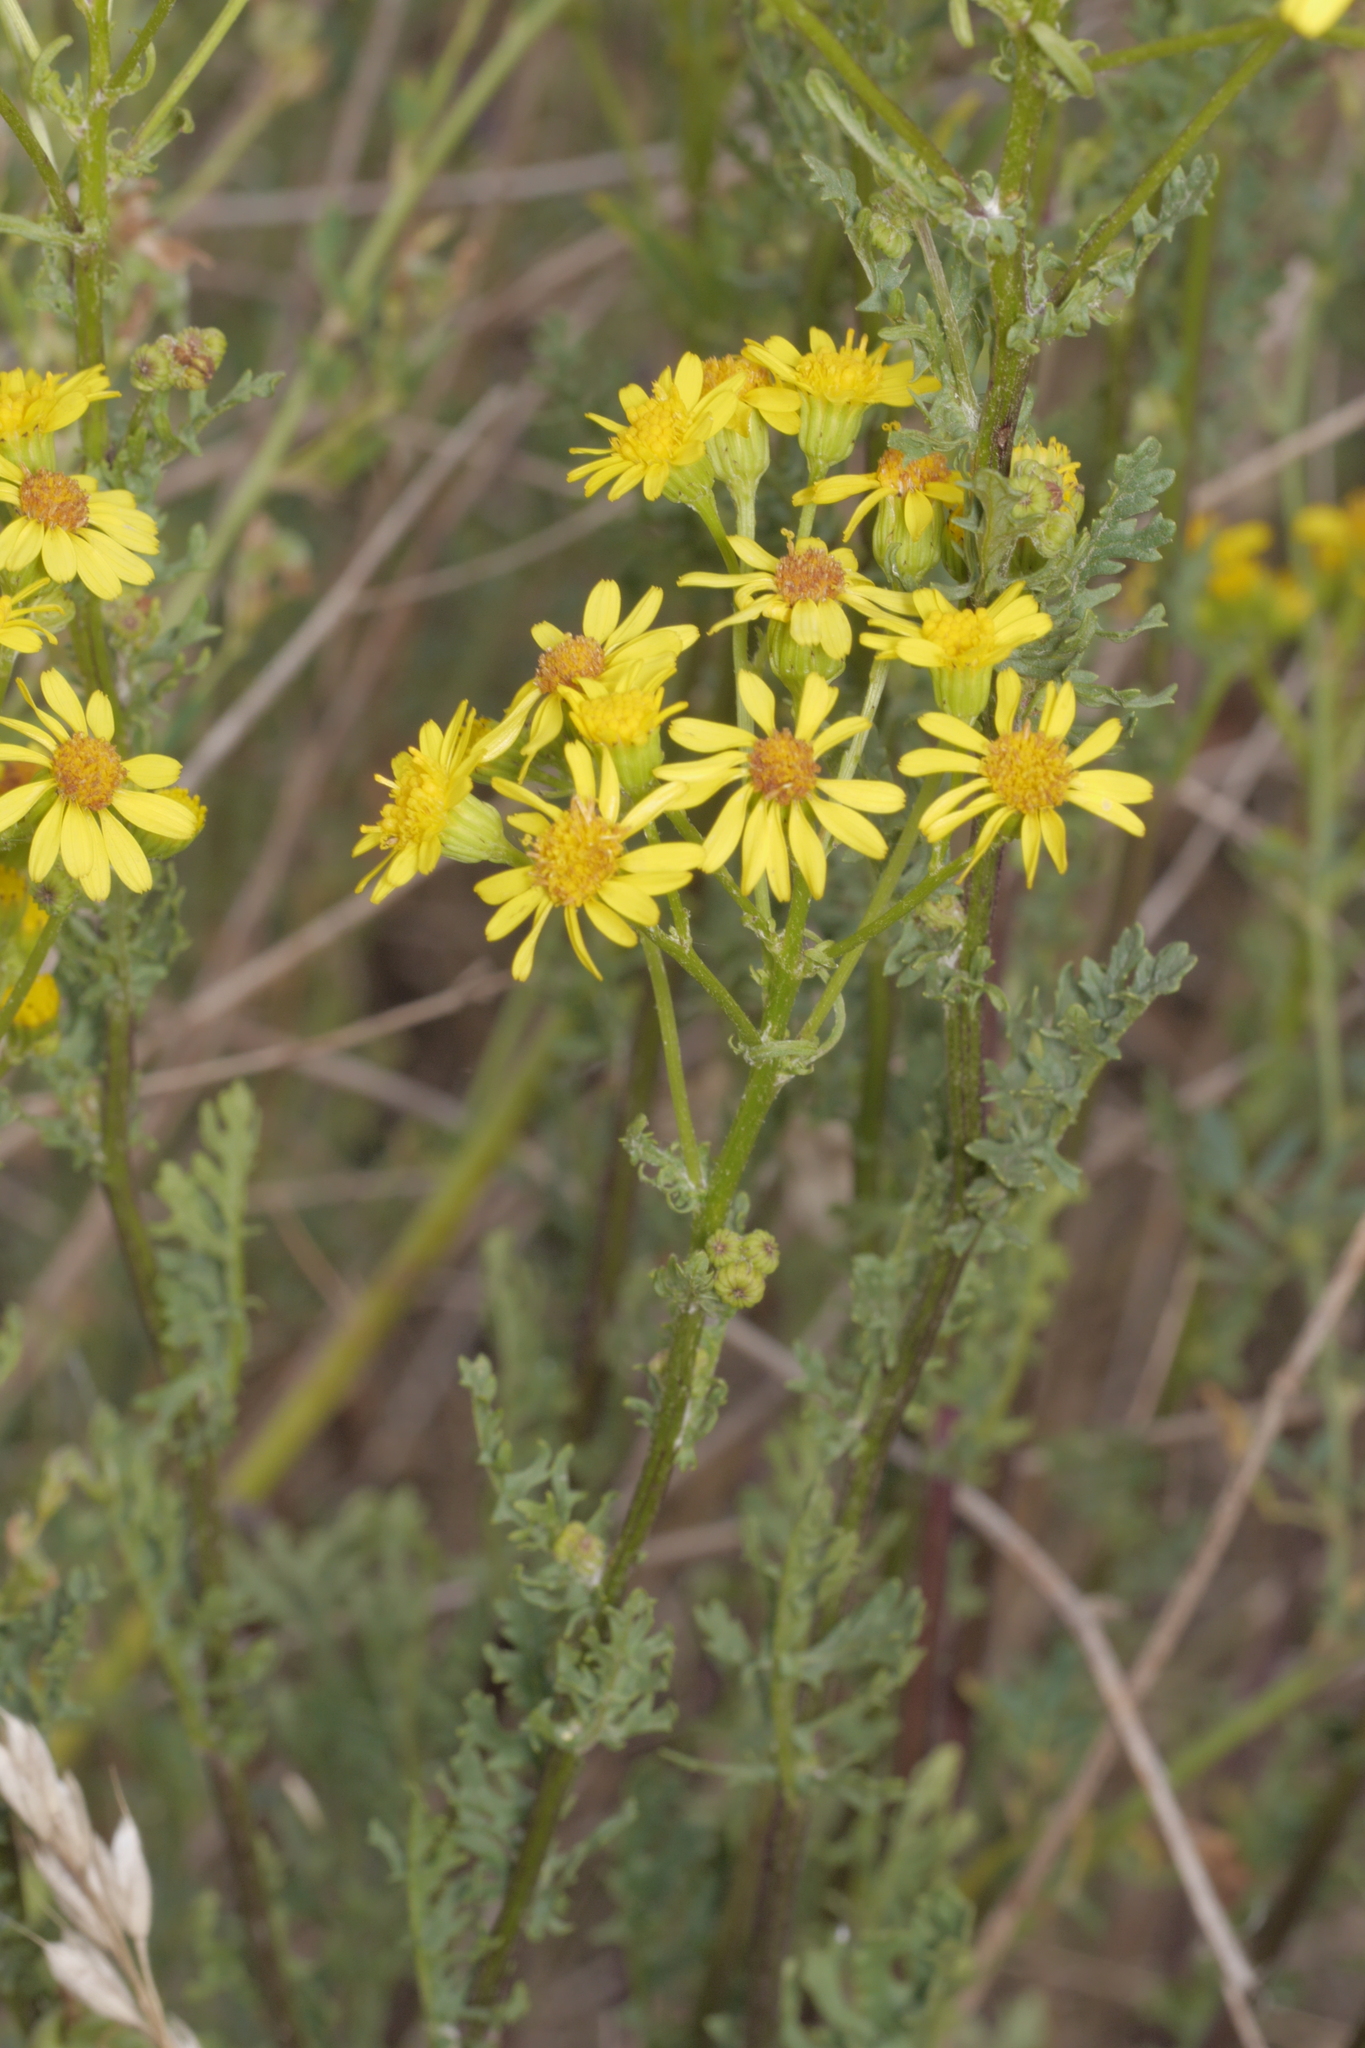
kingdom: Plantae
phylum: Tracheophyta
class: Magnoliopsida
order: Asterales
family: Asteraceae
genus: Jacobaea
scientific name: Jacobaea vulgaris
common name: Stinking willie
